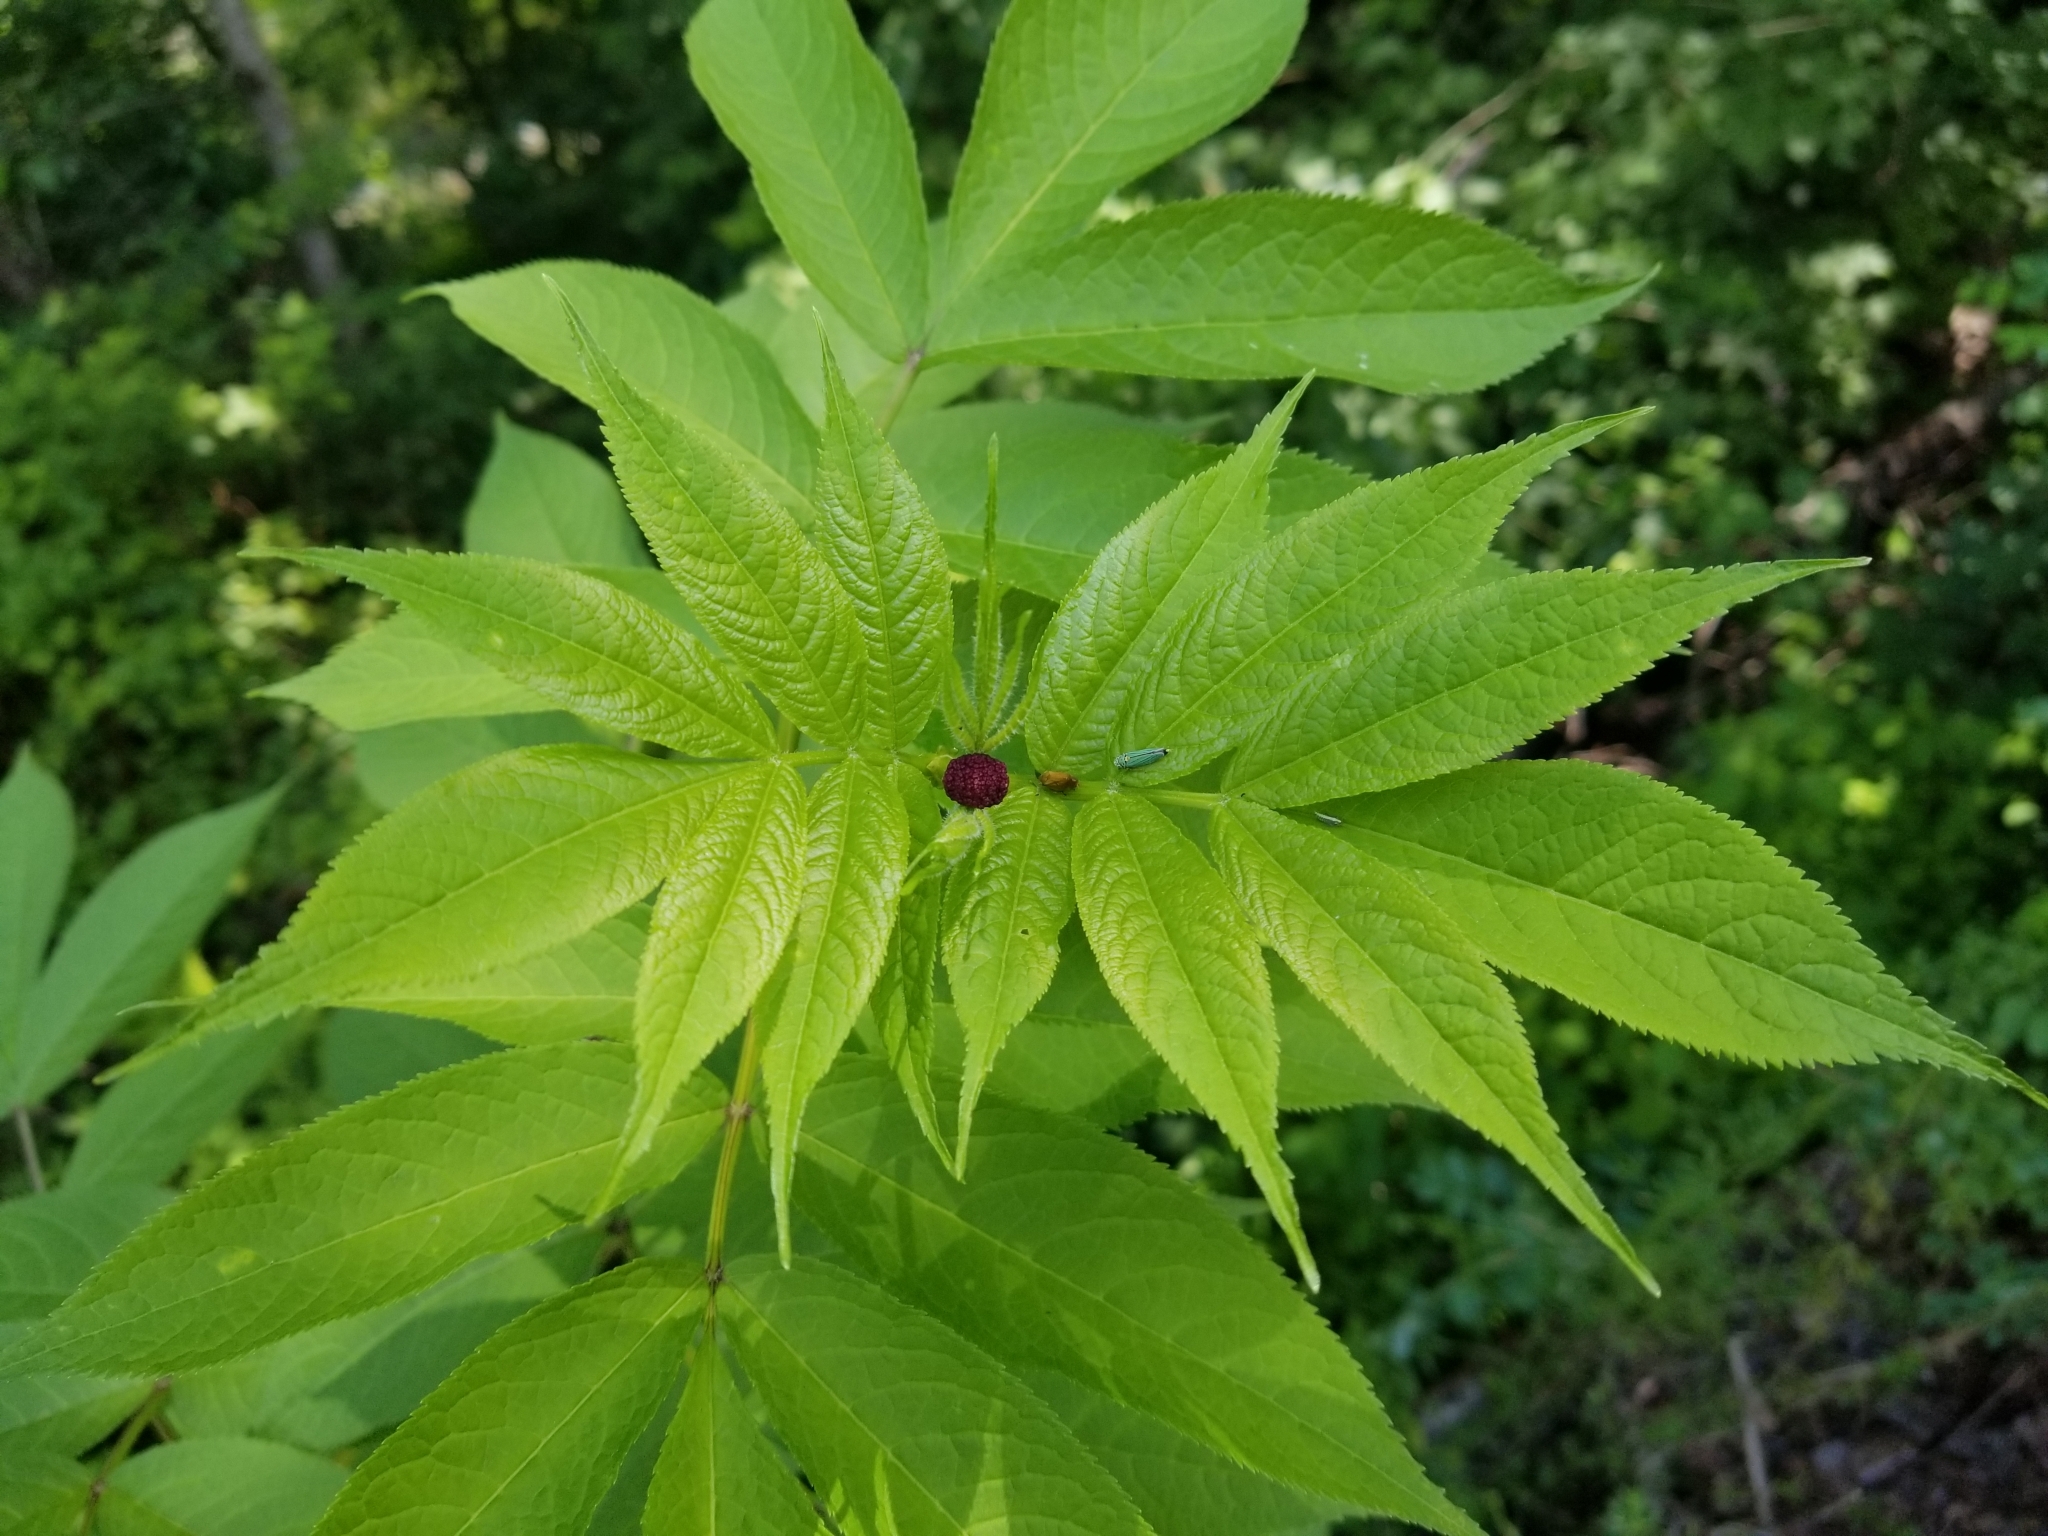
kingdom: Animalia
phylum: Arthropoda
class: Insecta
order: Hemiptera
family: Cicadellidae
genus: Graphocephala
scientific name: Graphocephala atropunctata
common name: Blue-green sharpshooter
